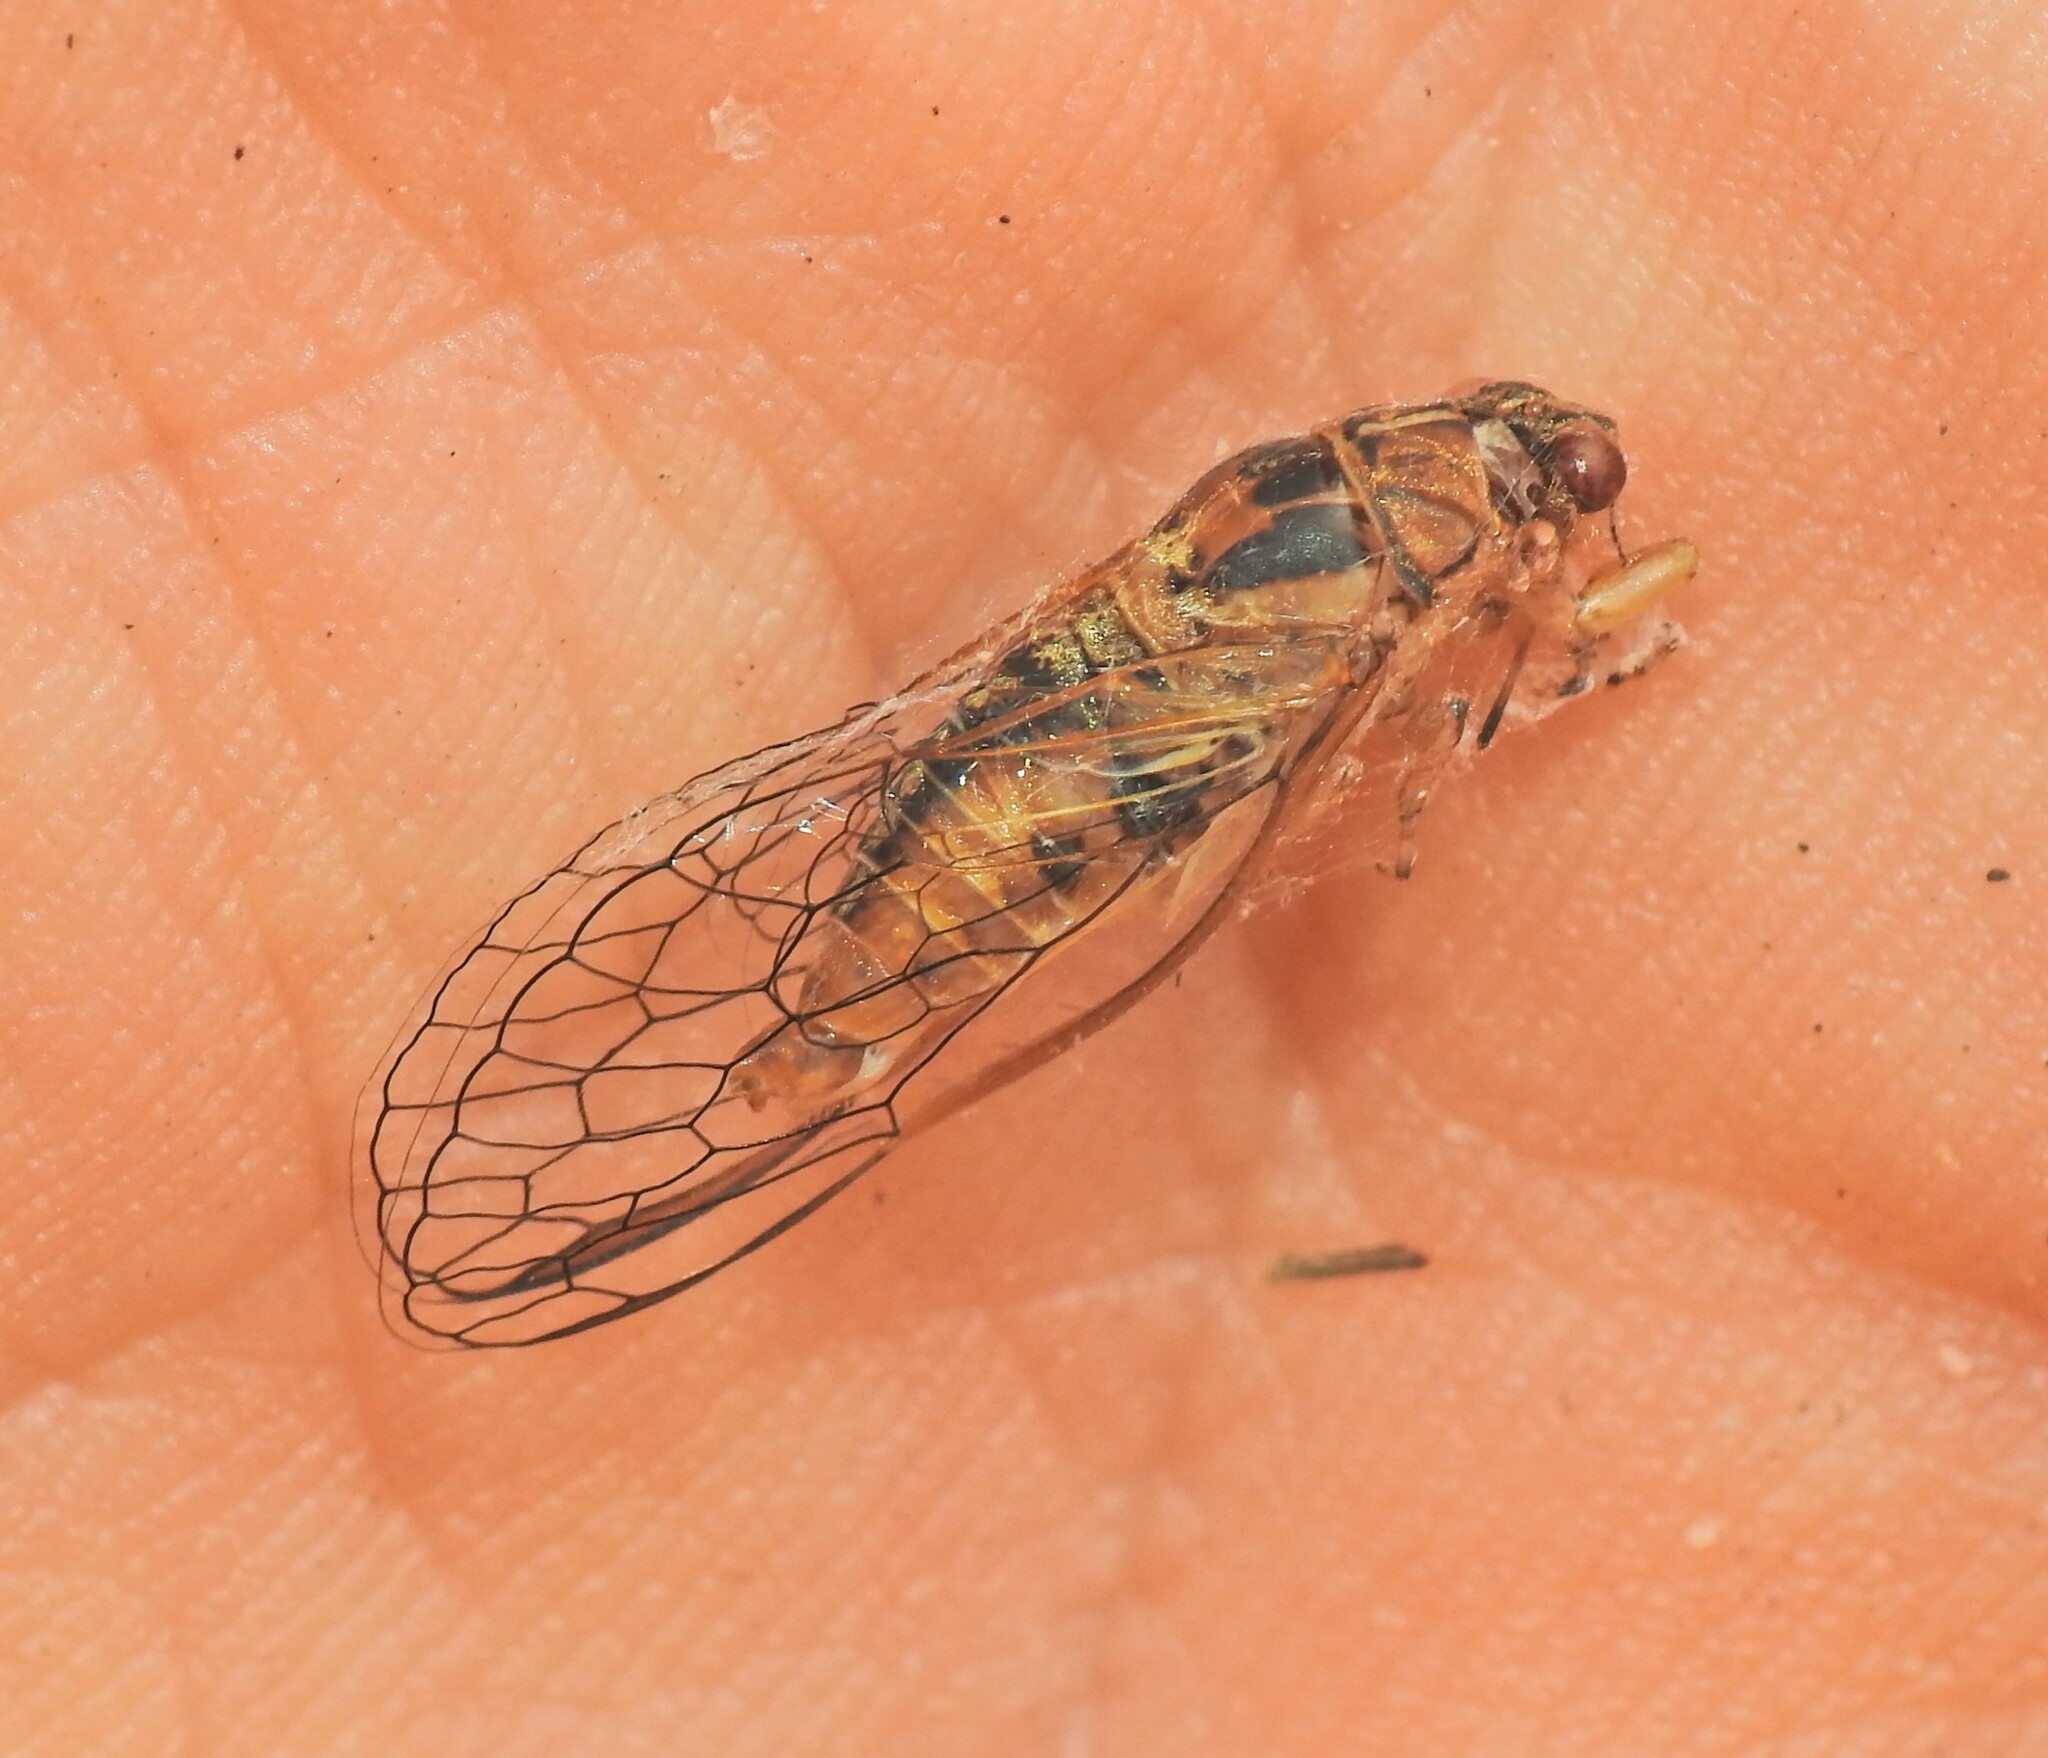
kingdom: Animalia
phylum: Arthropoda
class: Insecta
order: Hemiptera
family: Cicadidae
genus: Toxala
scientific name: Toxala verna
